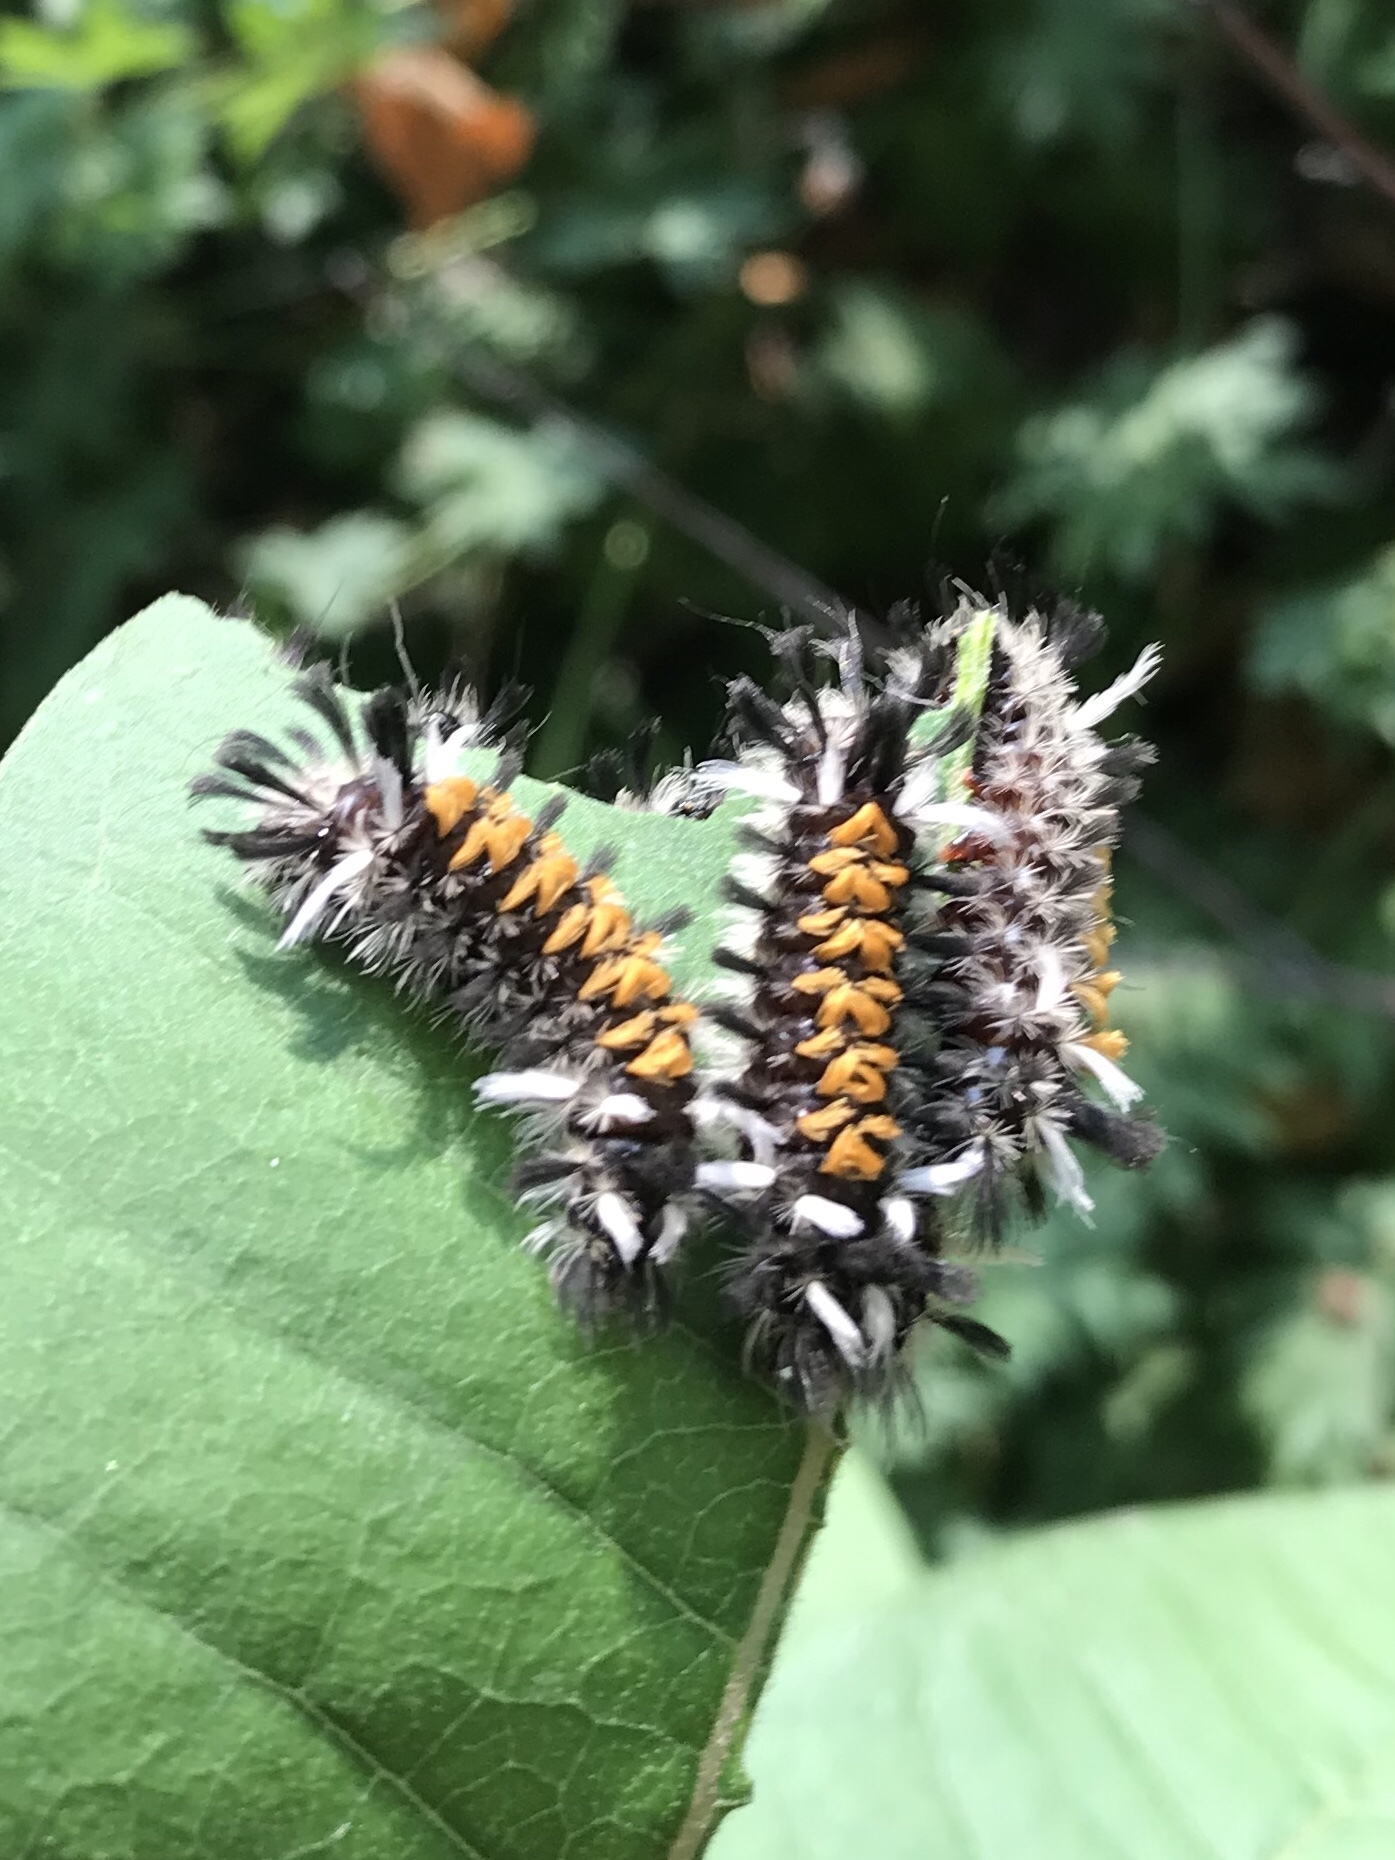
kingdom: Animalia
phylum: Arthropoda
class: Insecta
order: Lepidoptera
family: Erebidae
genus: Euchaetes
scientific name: Euchaetes egle
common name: Milkweed tussock moth
